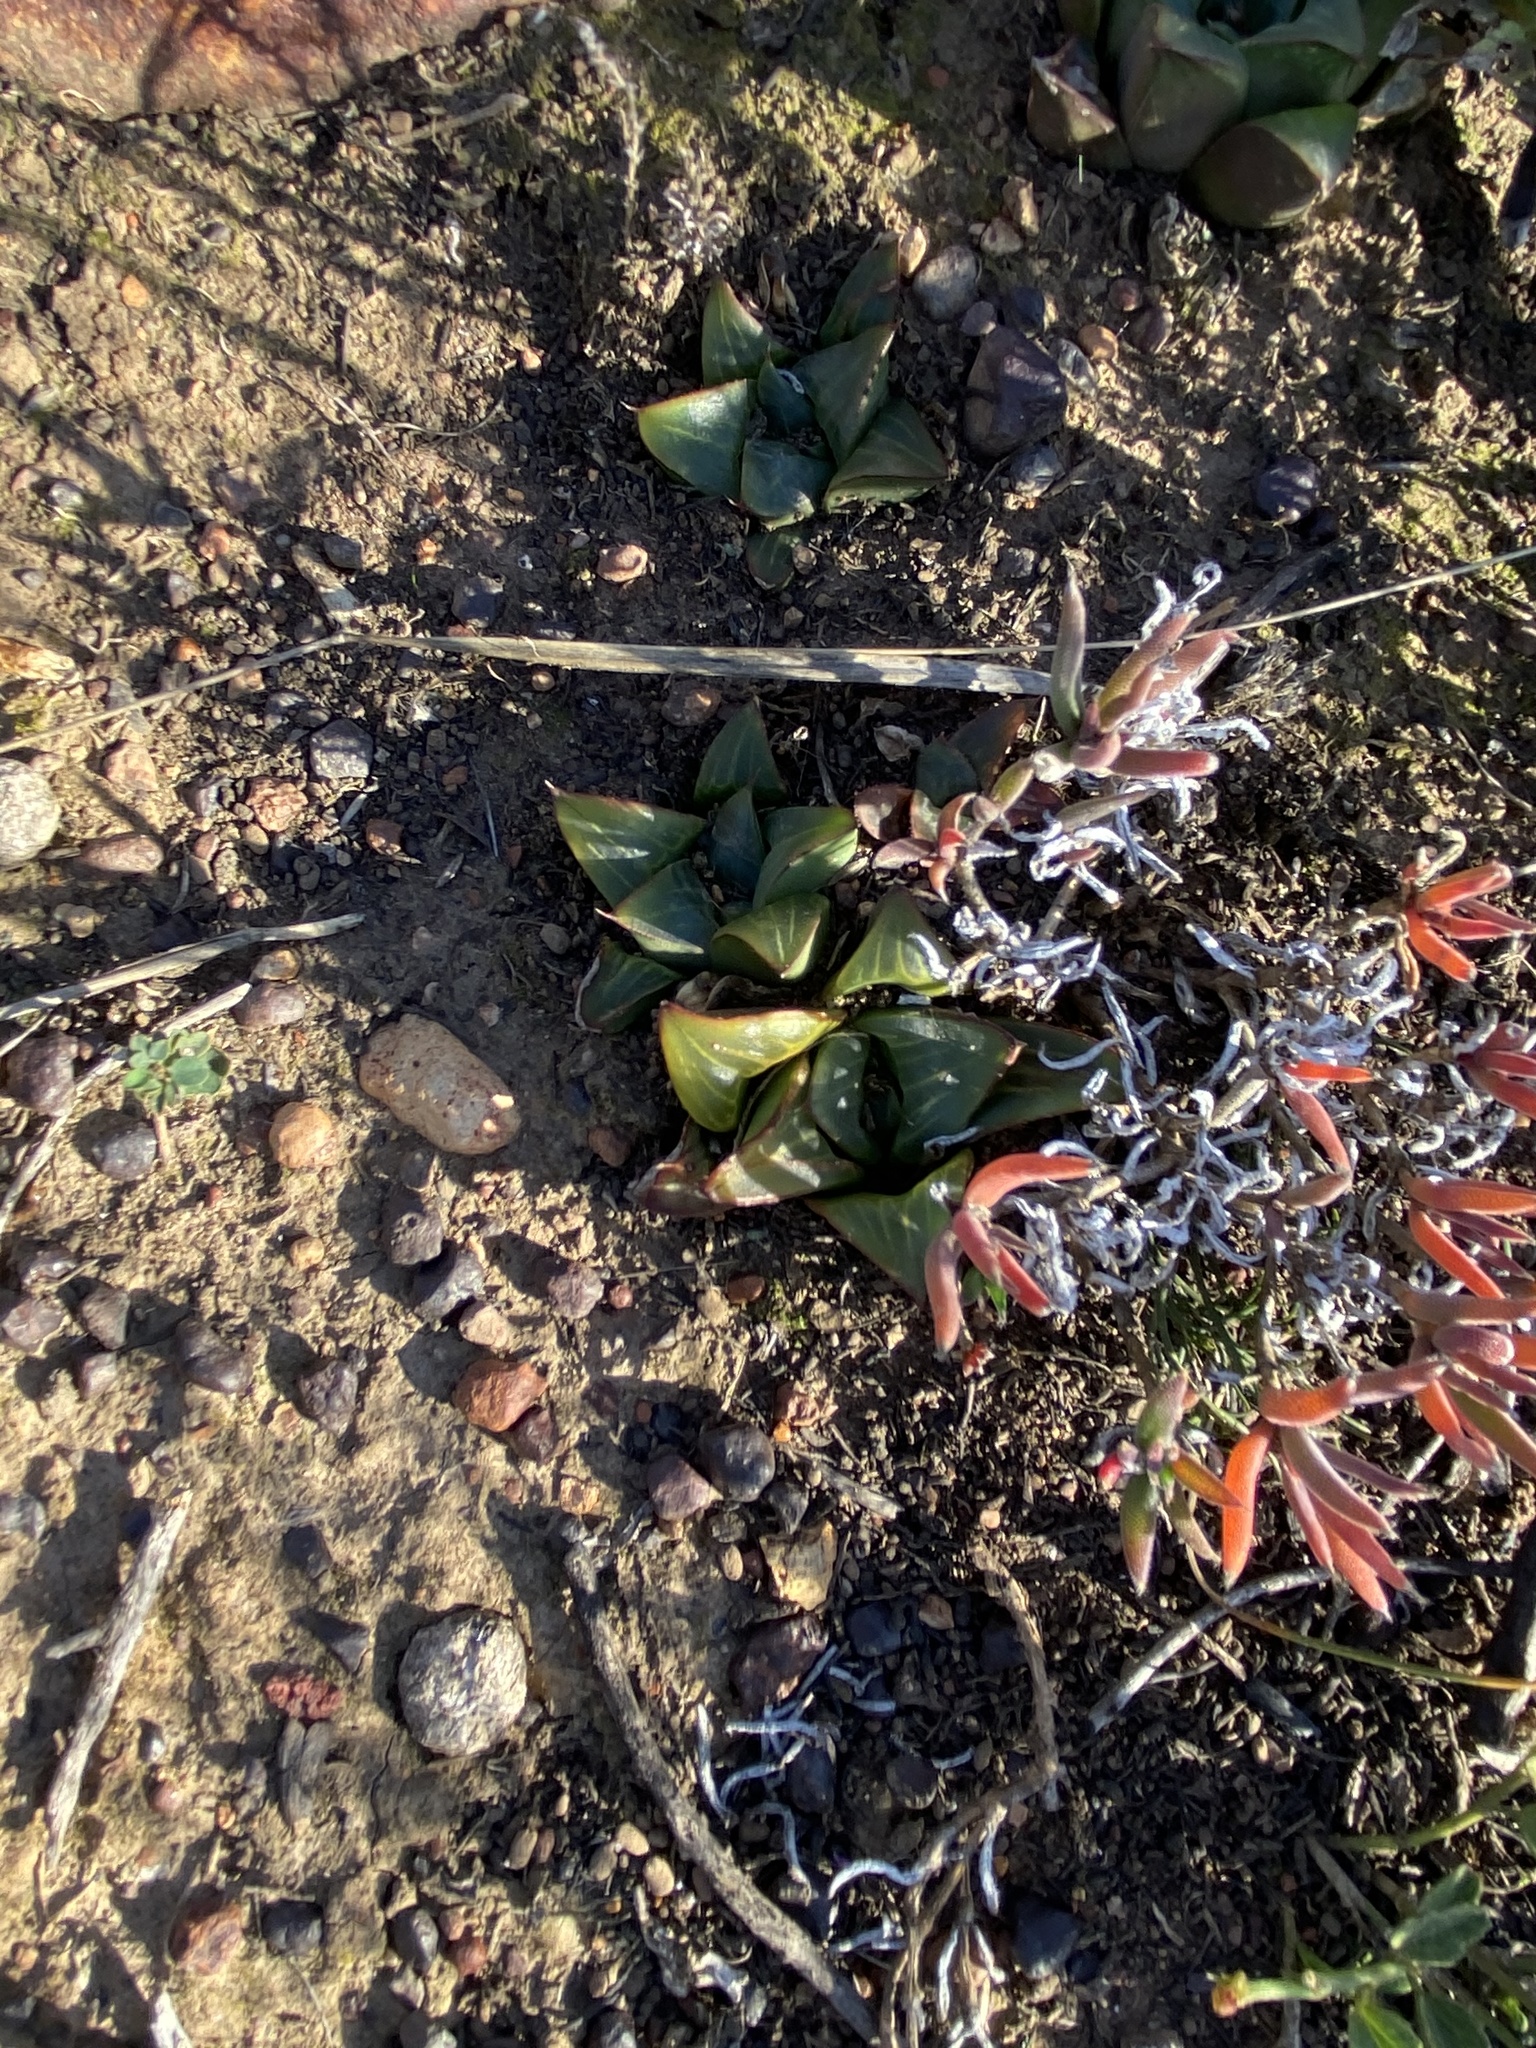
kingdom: Plantae
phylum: Tracheophyta
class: Liliopsida
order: Asparagales
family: Asphodelaceae
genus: Haworthia
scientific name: Haworthia retusa
